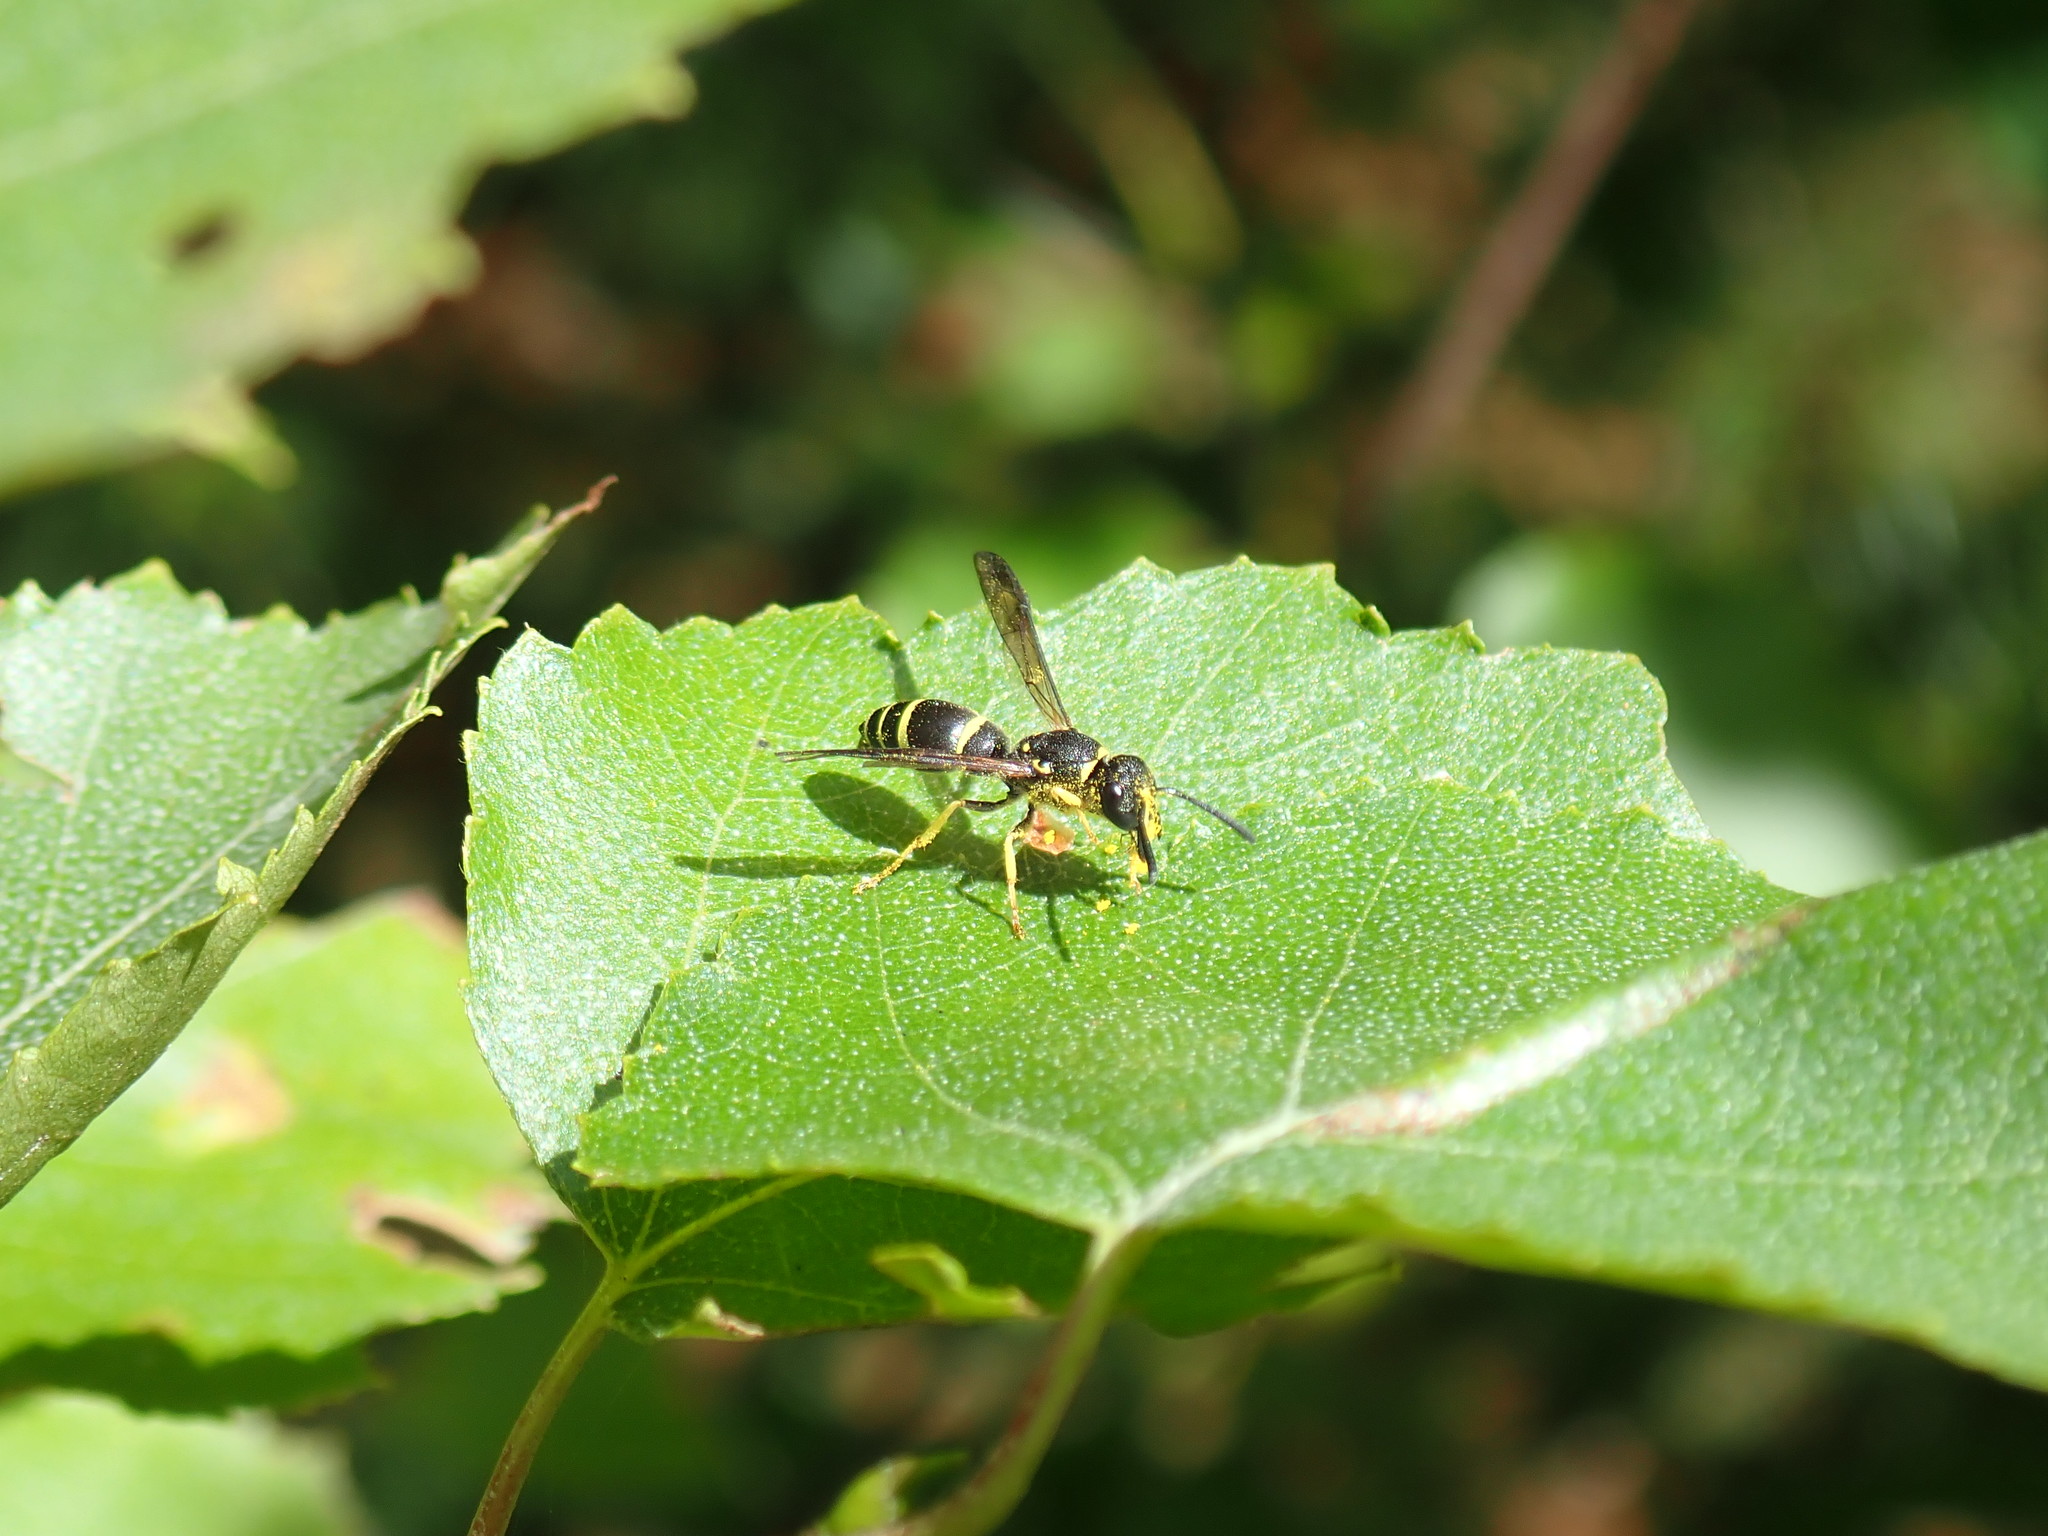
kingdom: Animalia
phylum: Arthropoda
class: Insecta
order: Hymenoptera
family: Vespidae
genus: Ancistrocerus
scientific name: Ancistrocerus
